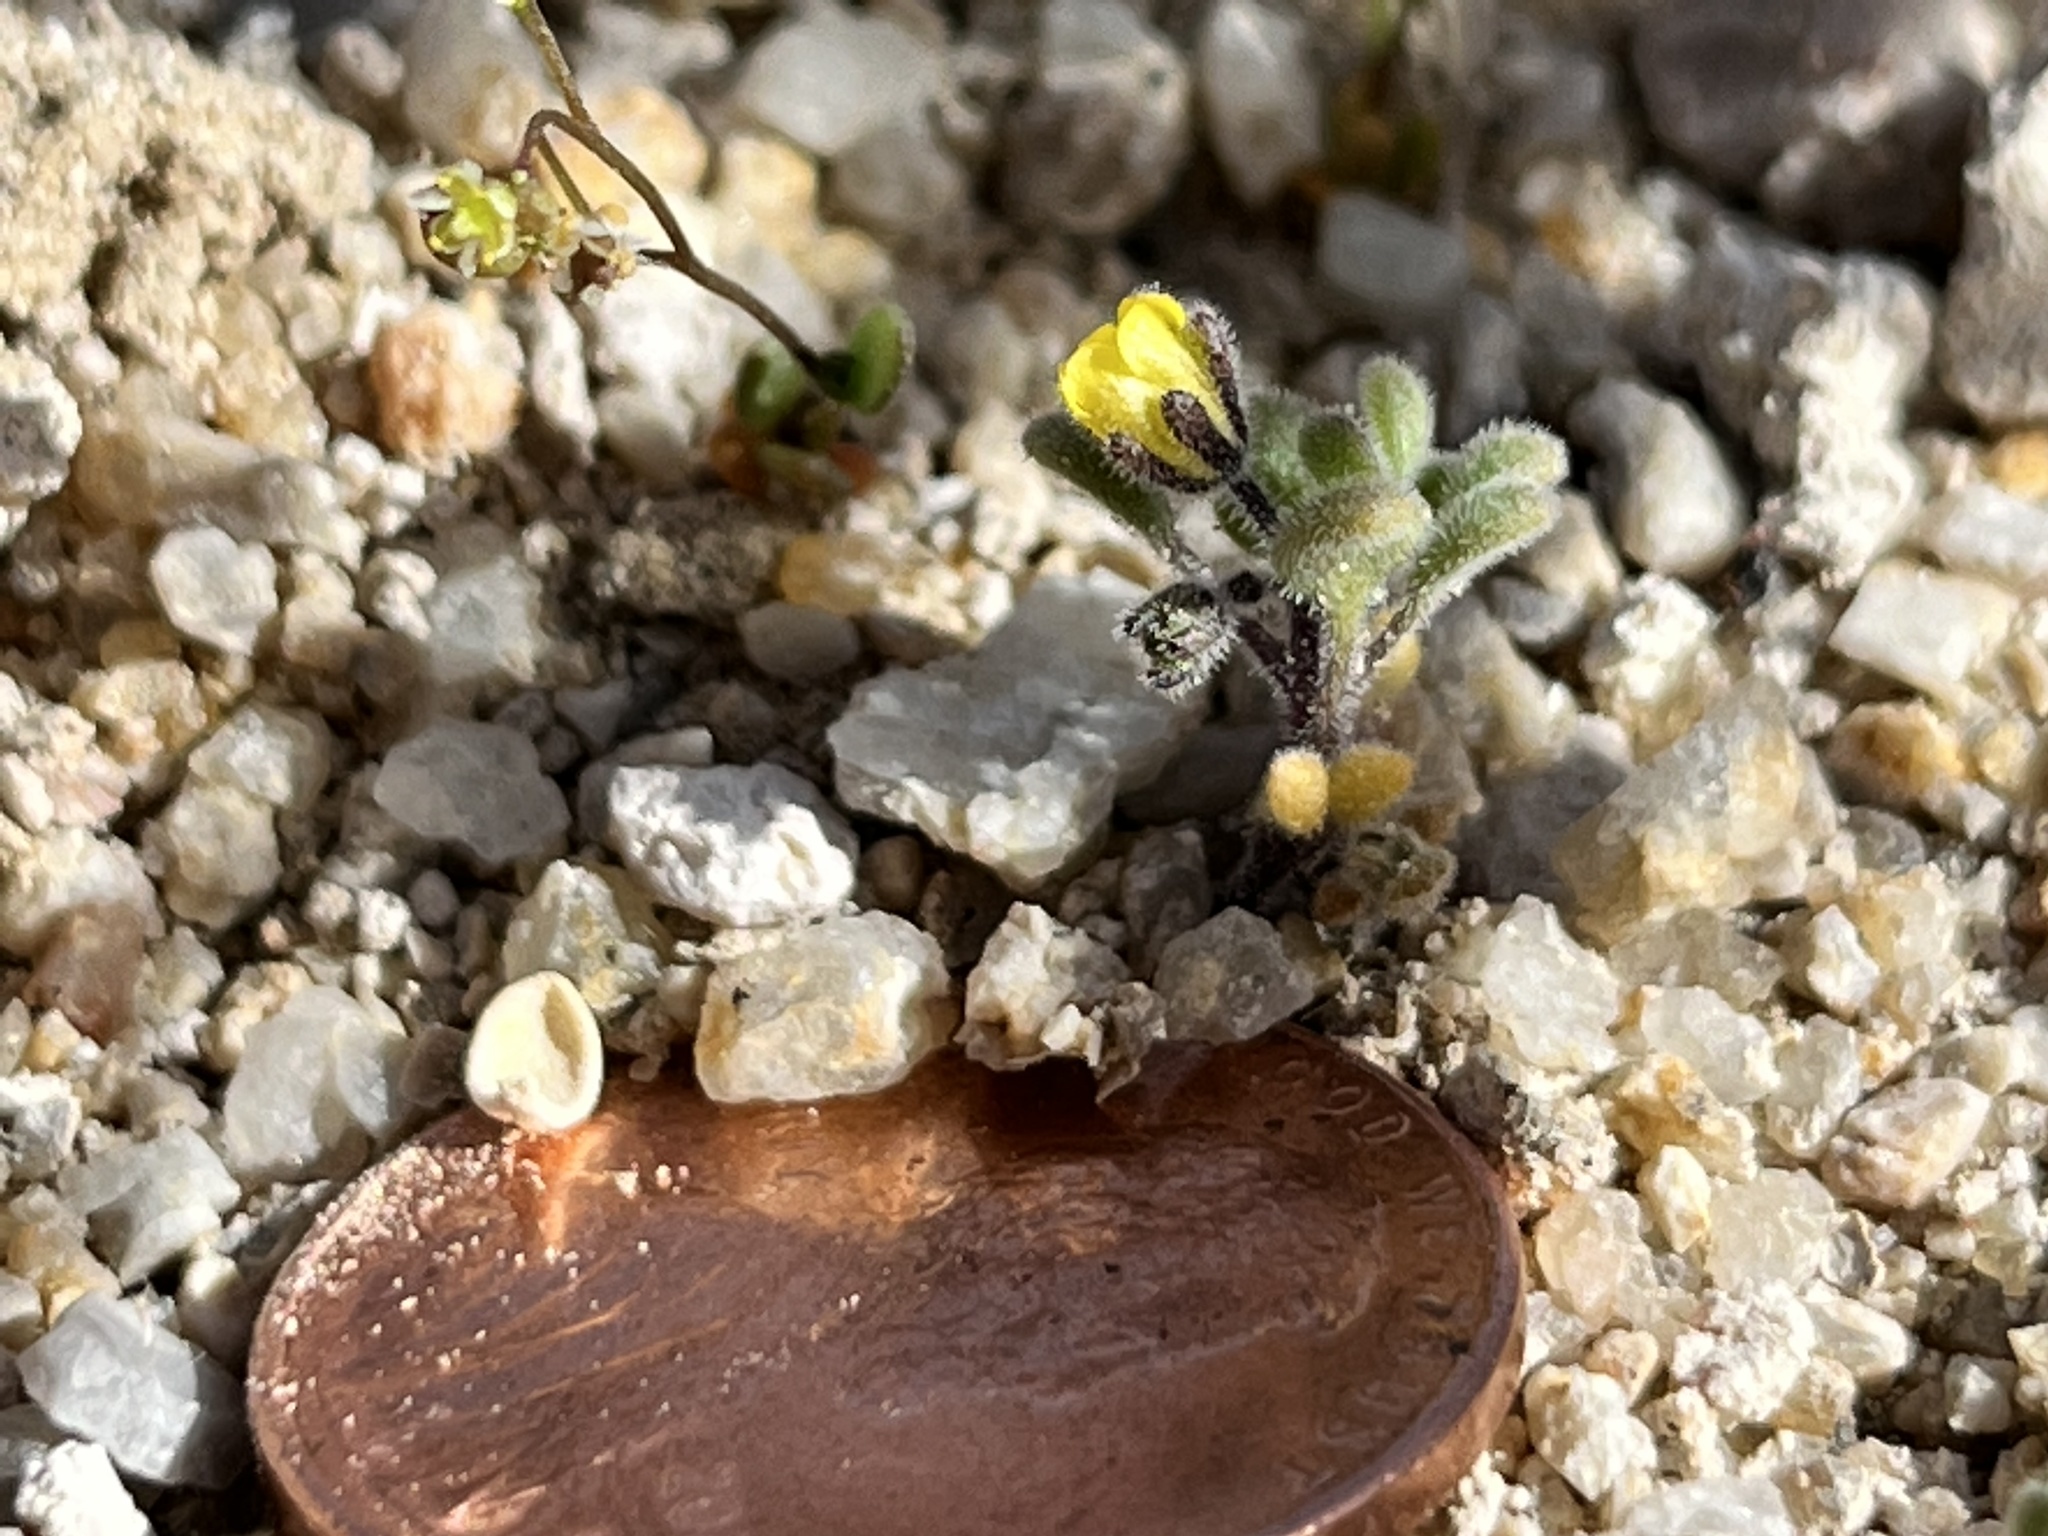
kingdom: Plantae
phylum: Tracheophyta
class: Magnoliopsida
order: Boraginales
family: Hydrophyllaceae
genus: Phacelia
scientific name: Phacelia inyoensis
